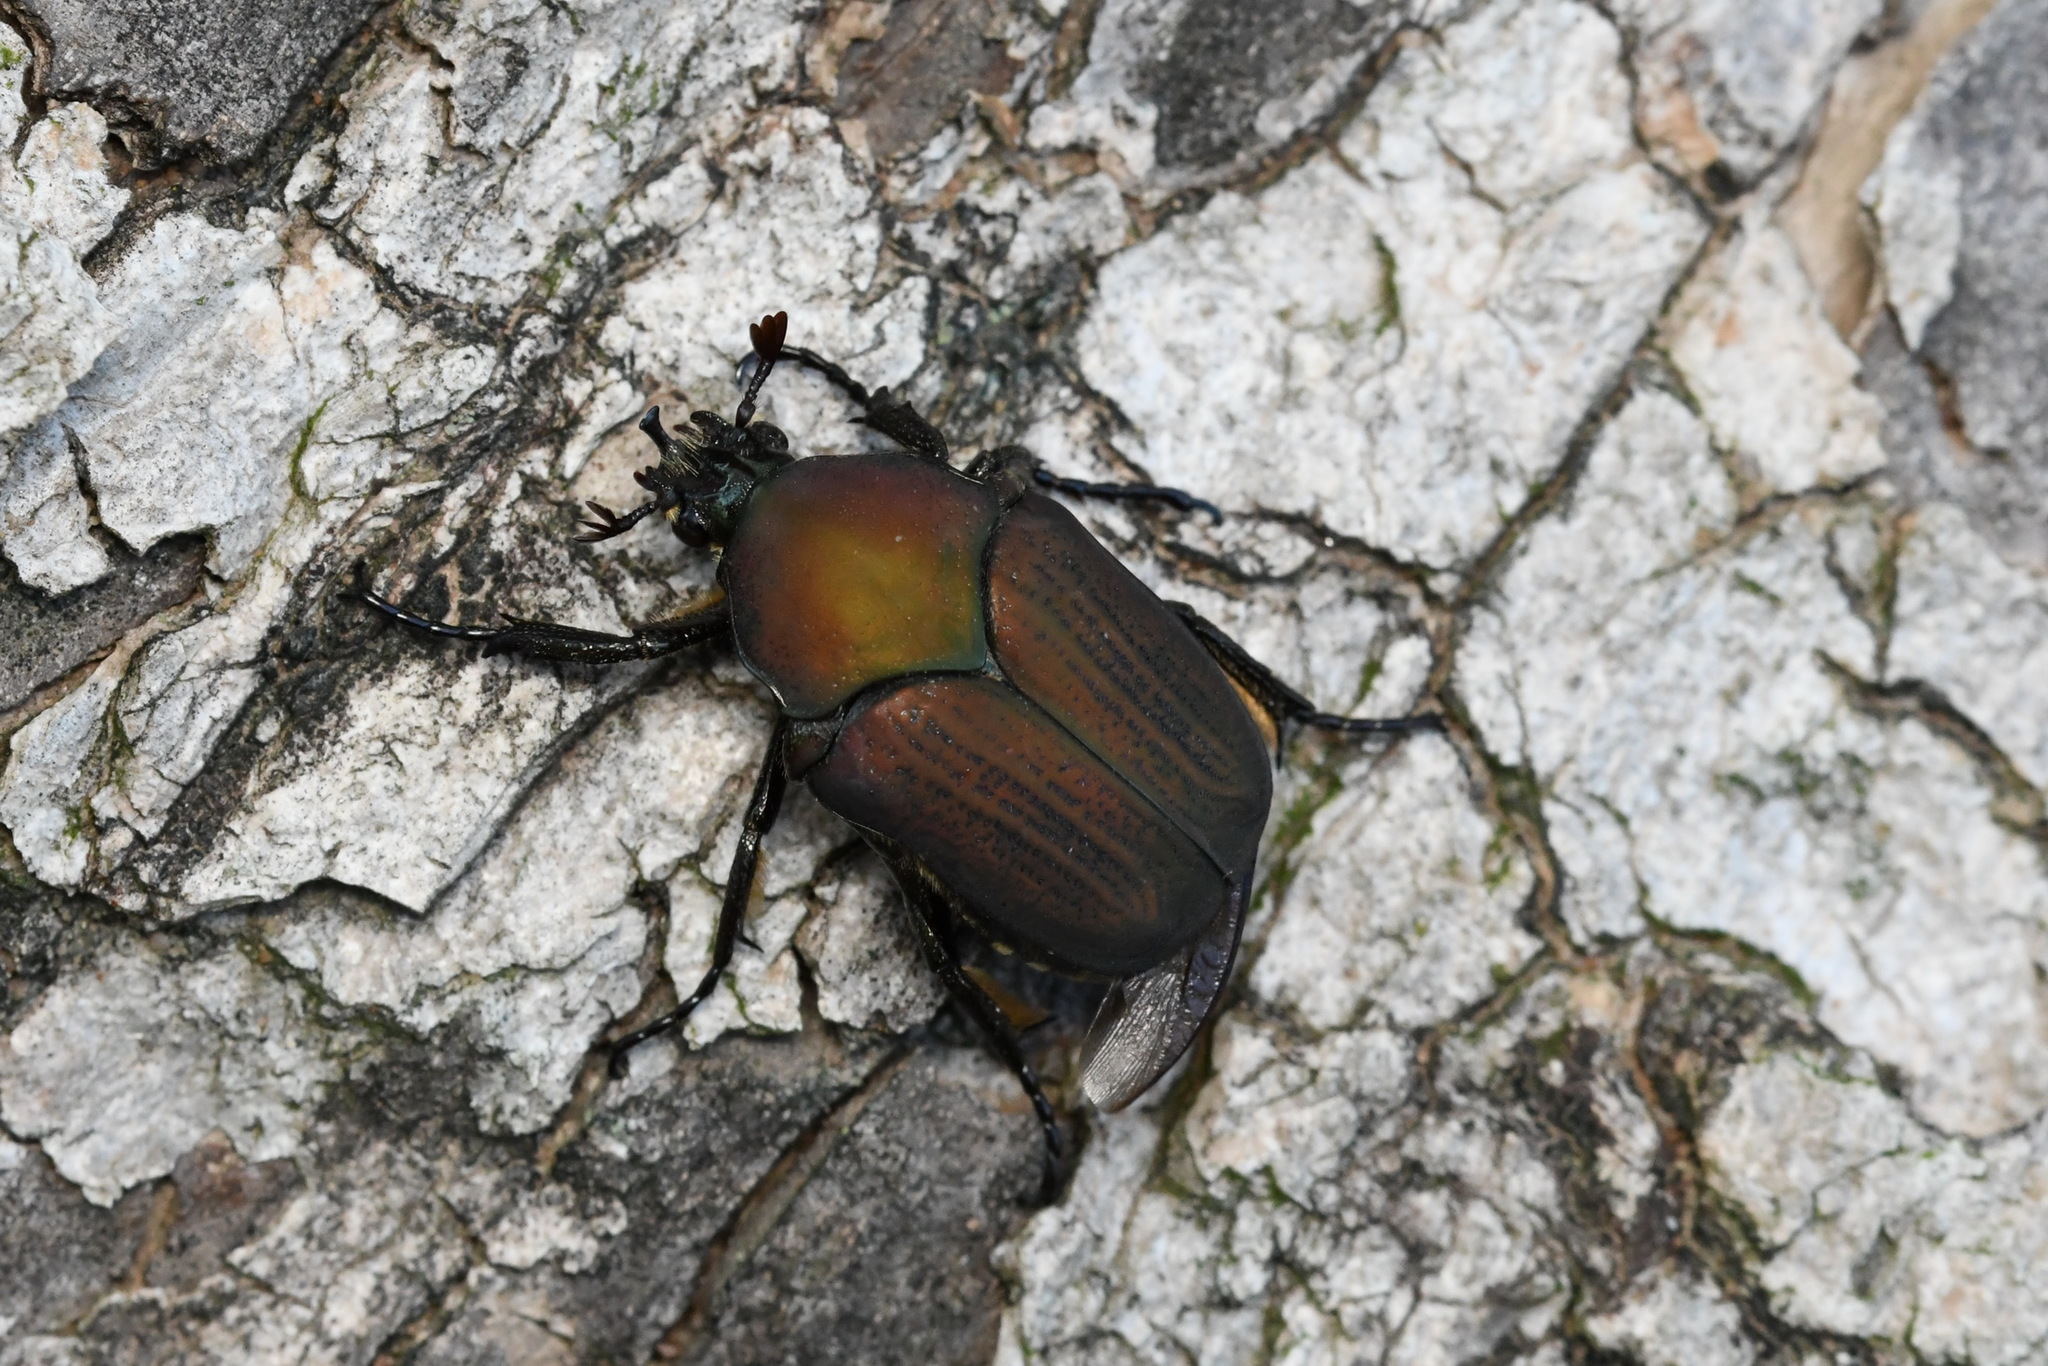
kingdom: Animalia
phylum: Arthropoda
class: Insecta
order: Coleoptera
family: Scarabaeidae
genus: Allorrhina
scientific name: Allorrhina menetriesi
